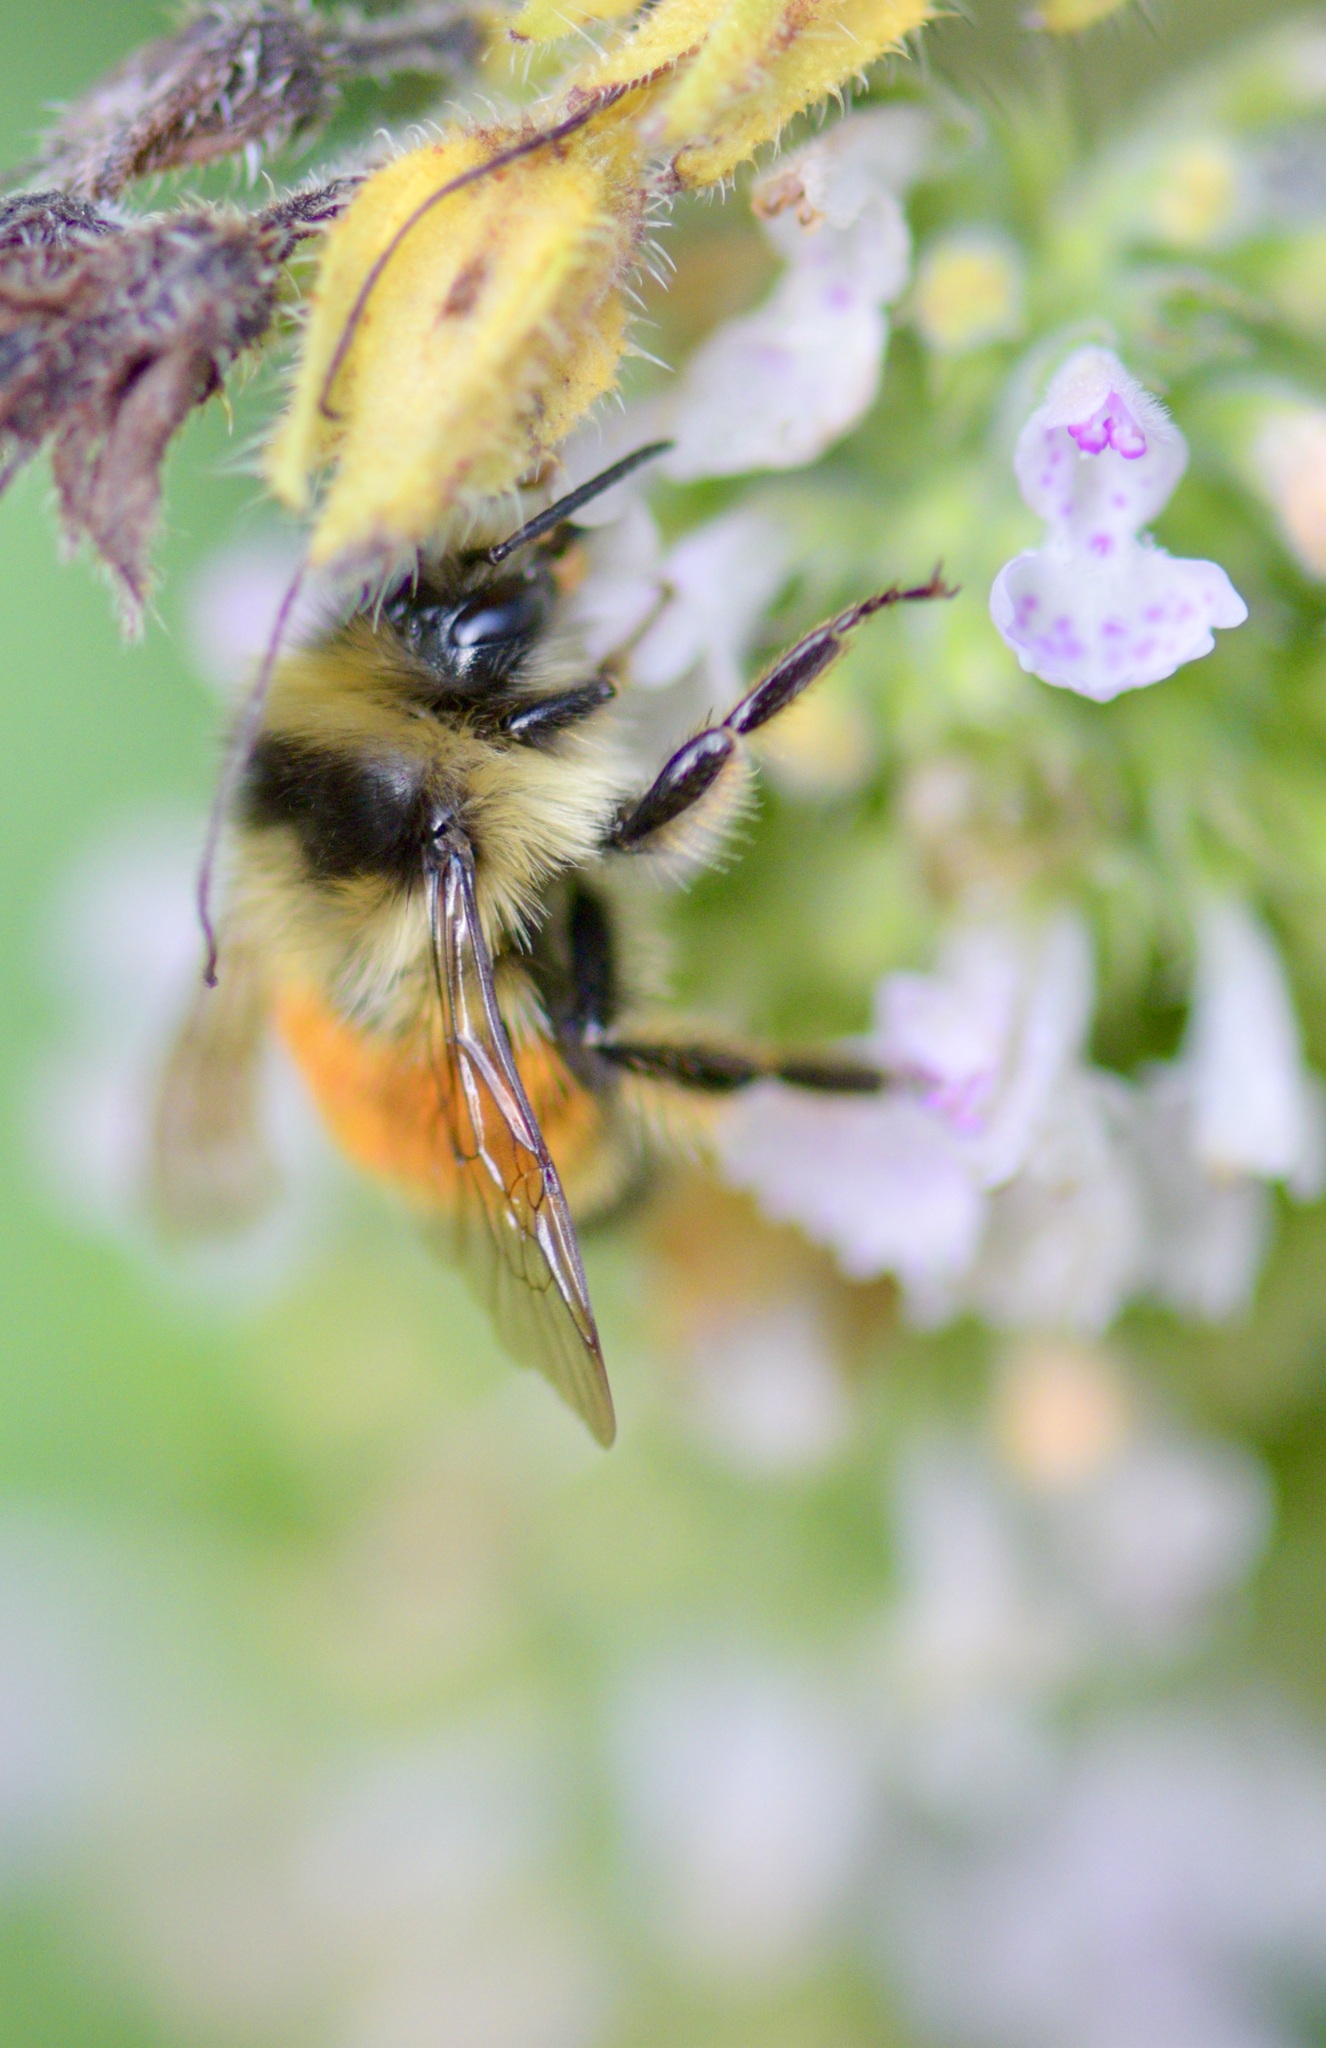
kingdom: Animalia
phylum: Arthropoda
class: Insecta
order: Hymenoptera
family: Apidae
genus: Bombus
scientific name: Bombus ternarius
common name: Tri-colored bumble bee
